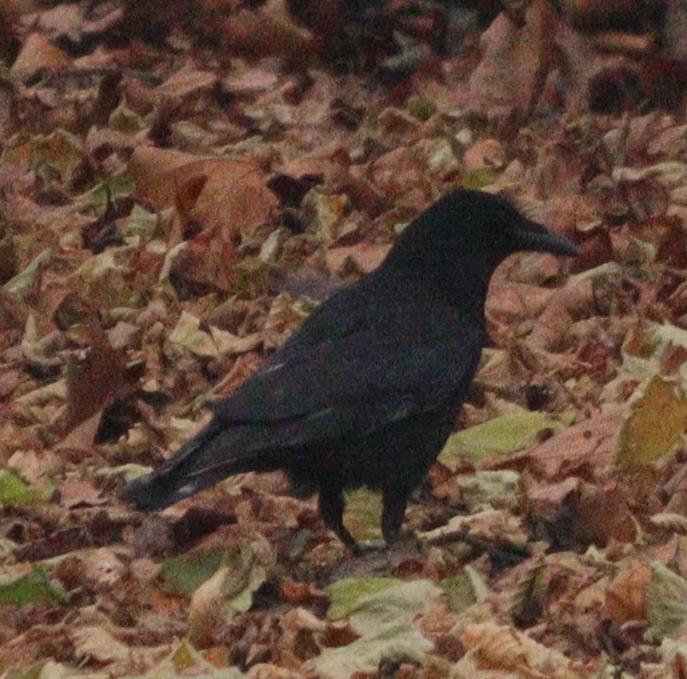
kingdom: Animalia
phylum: Chordata
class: Aves
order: Passeriformes
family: Corvidae
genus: Corvus
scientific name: Corvus corone
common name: Carrion crow
